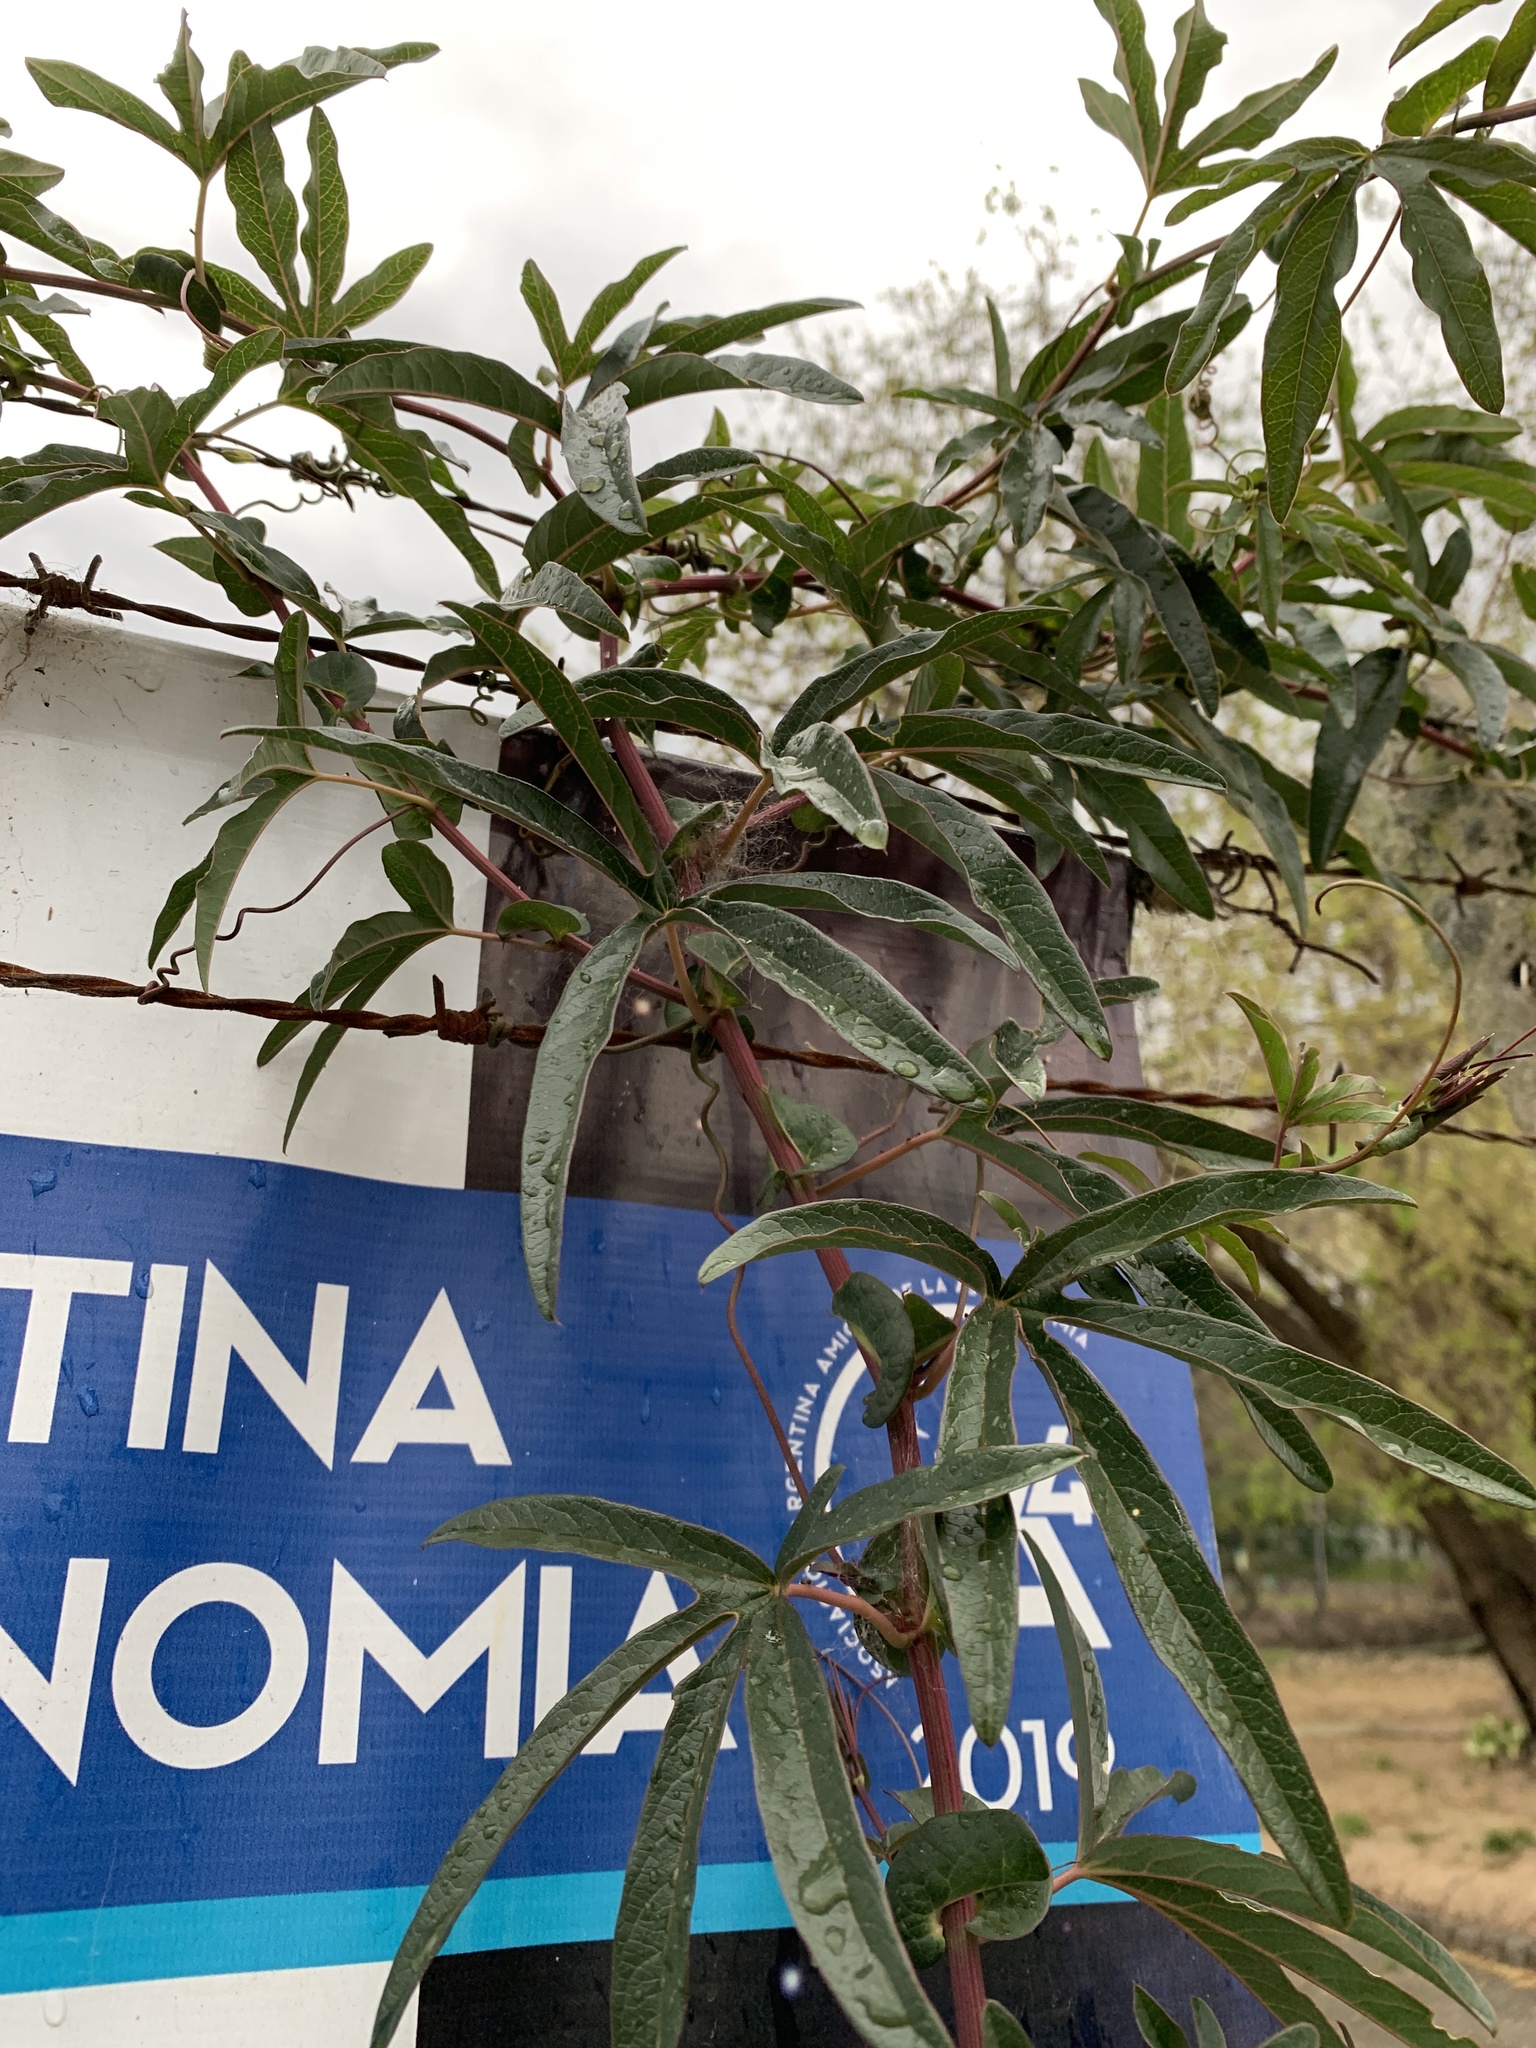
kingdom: Plantae
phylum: Tracheophyta
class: Magnoliopsida
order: Malpighiales
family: Passifloraceae
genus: Passiflora
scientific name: Passiflora caerulea
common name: Blue passionflower
